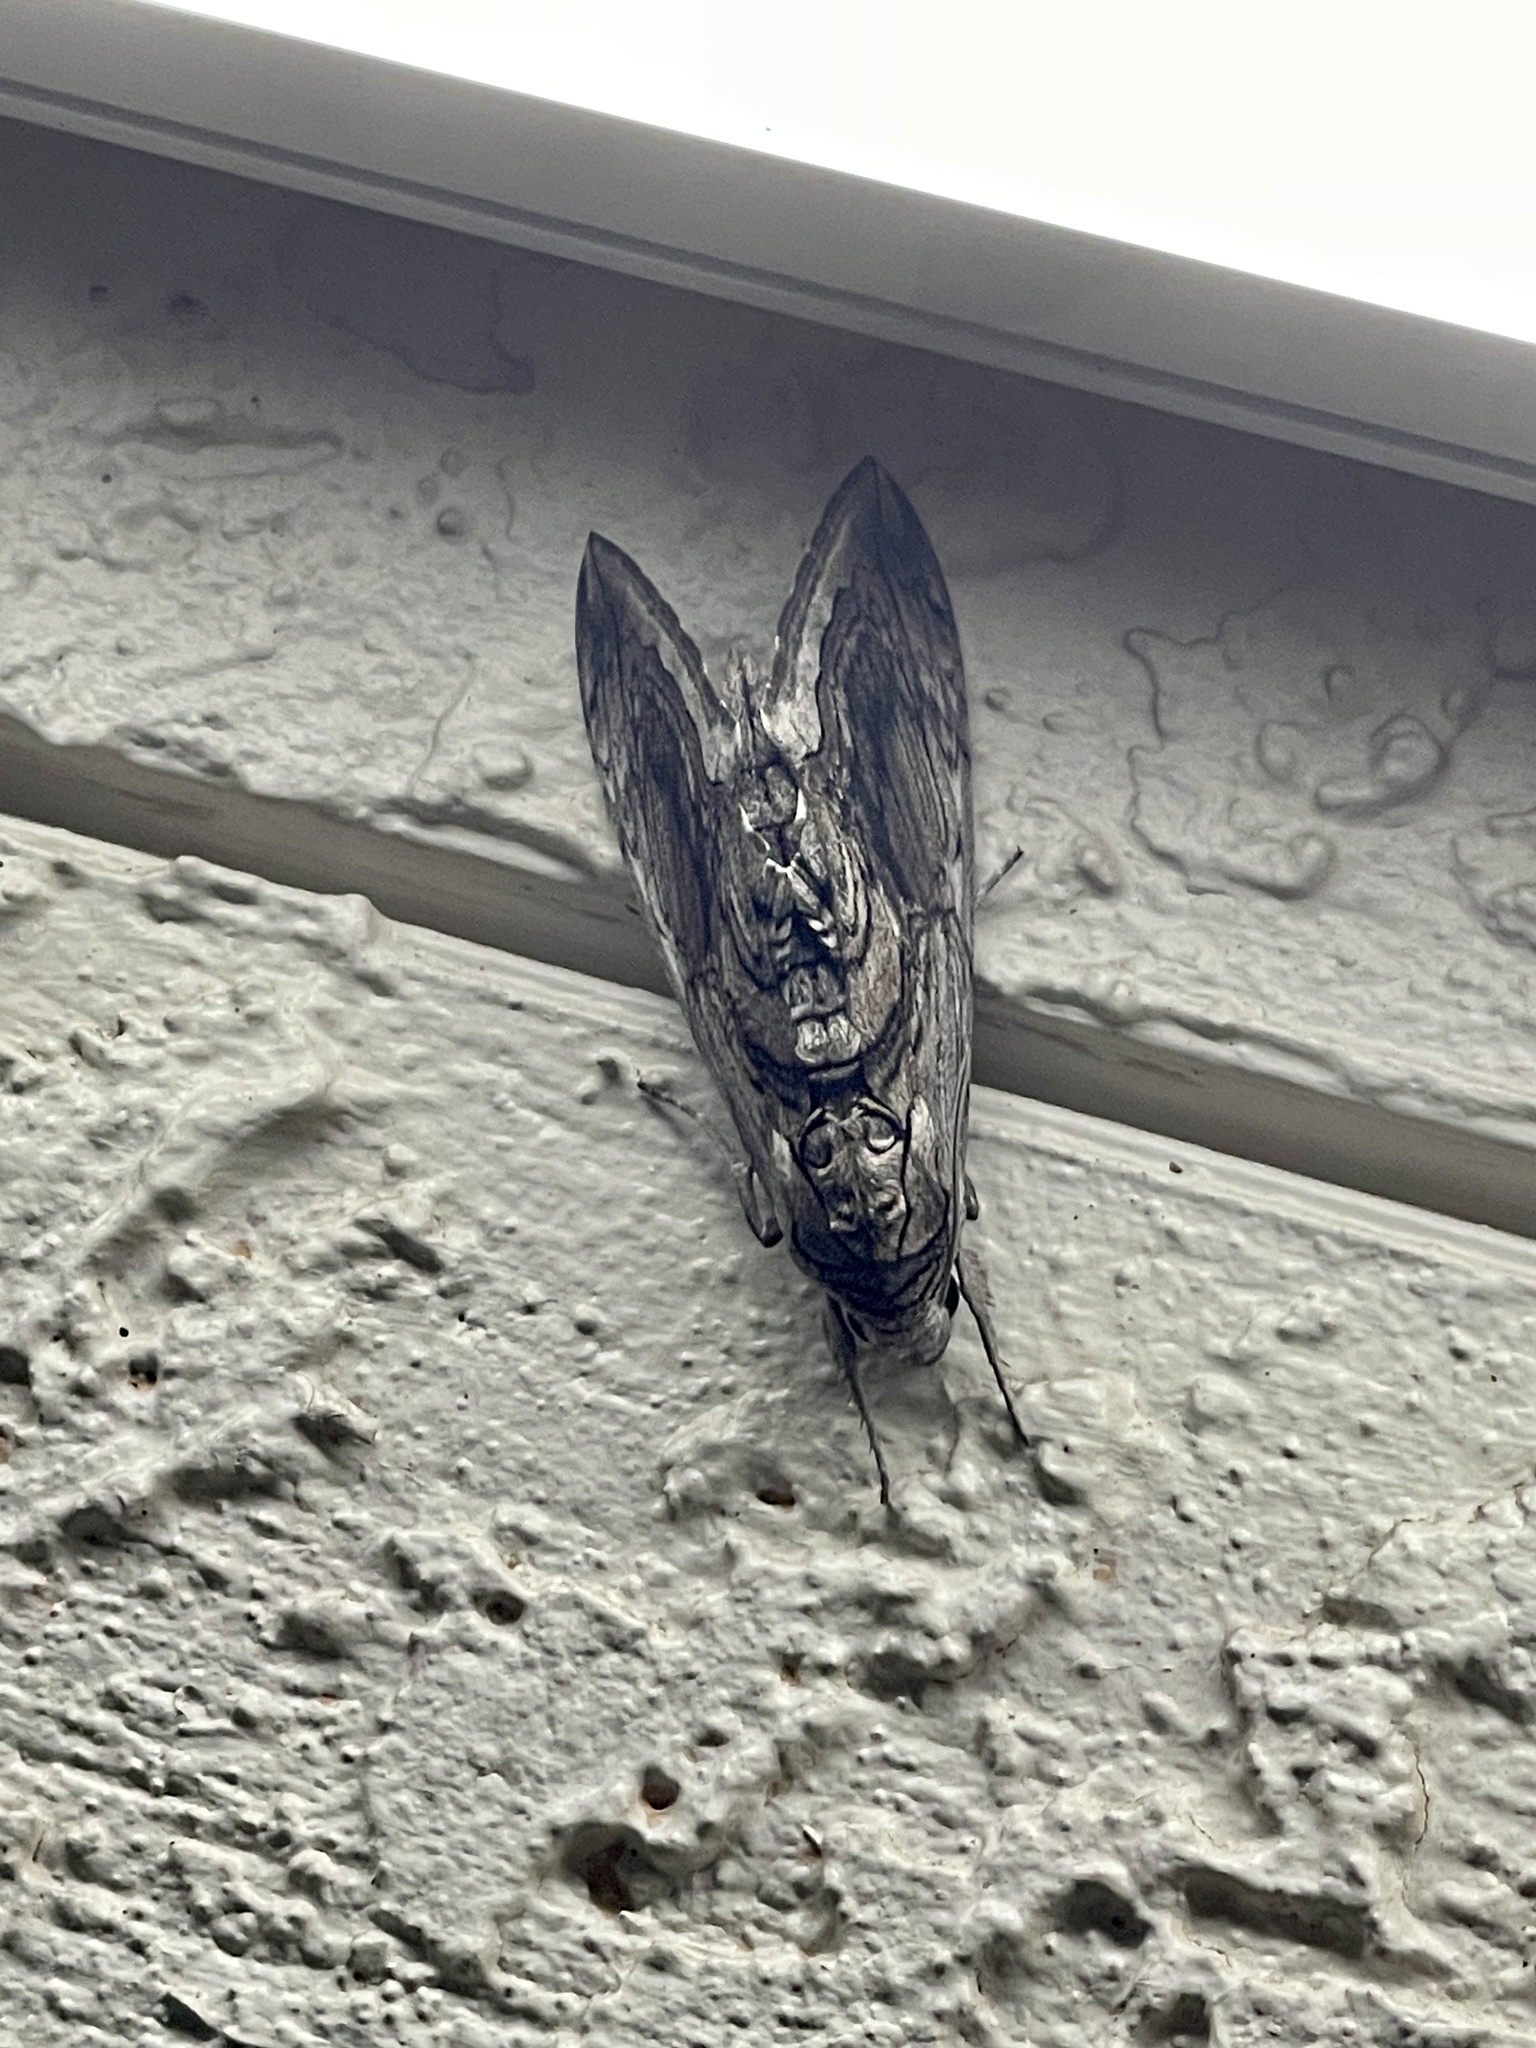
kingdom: Animalia
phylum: Arthropoda
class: Insecta
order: Lepidoptera
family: Sphingidae
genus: Manduca
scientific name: Manduca quinquemaculatus
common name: Five-spotted hawk-moth
